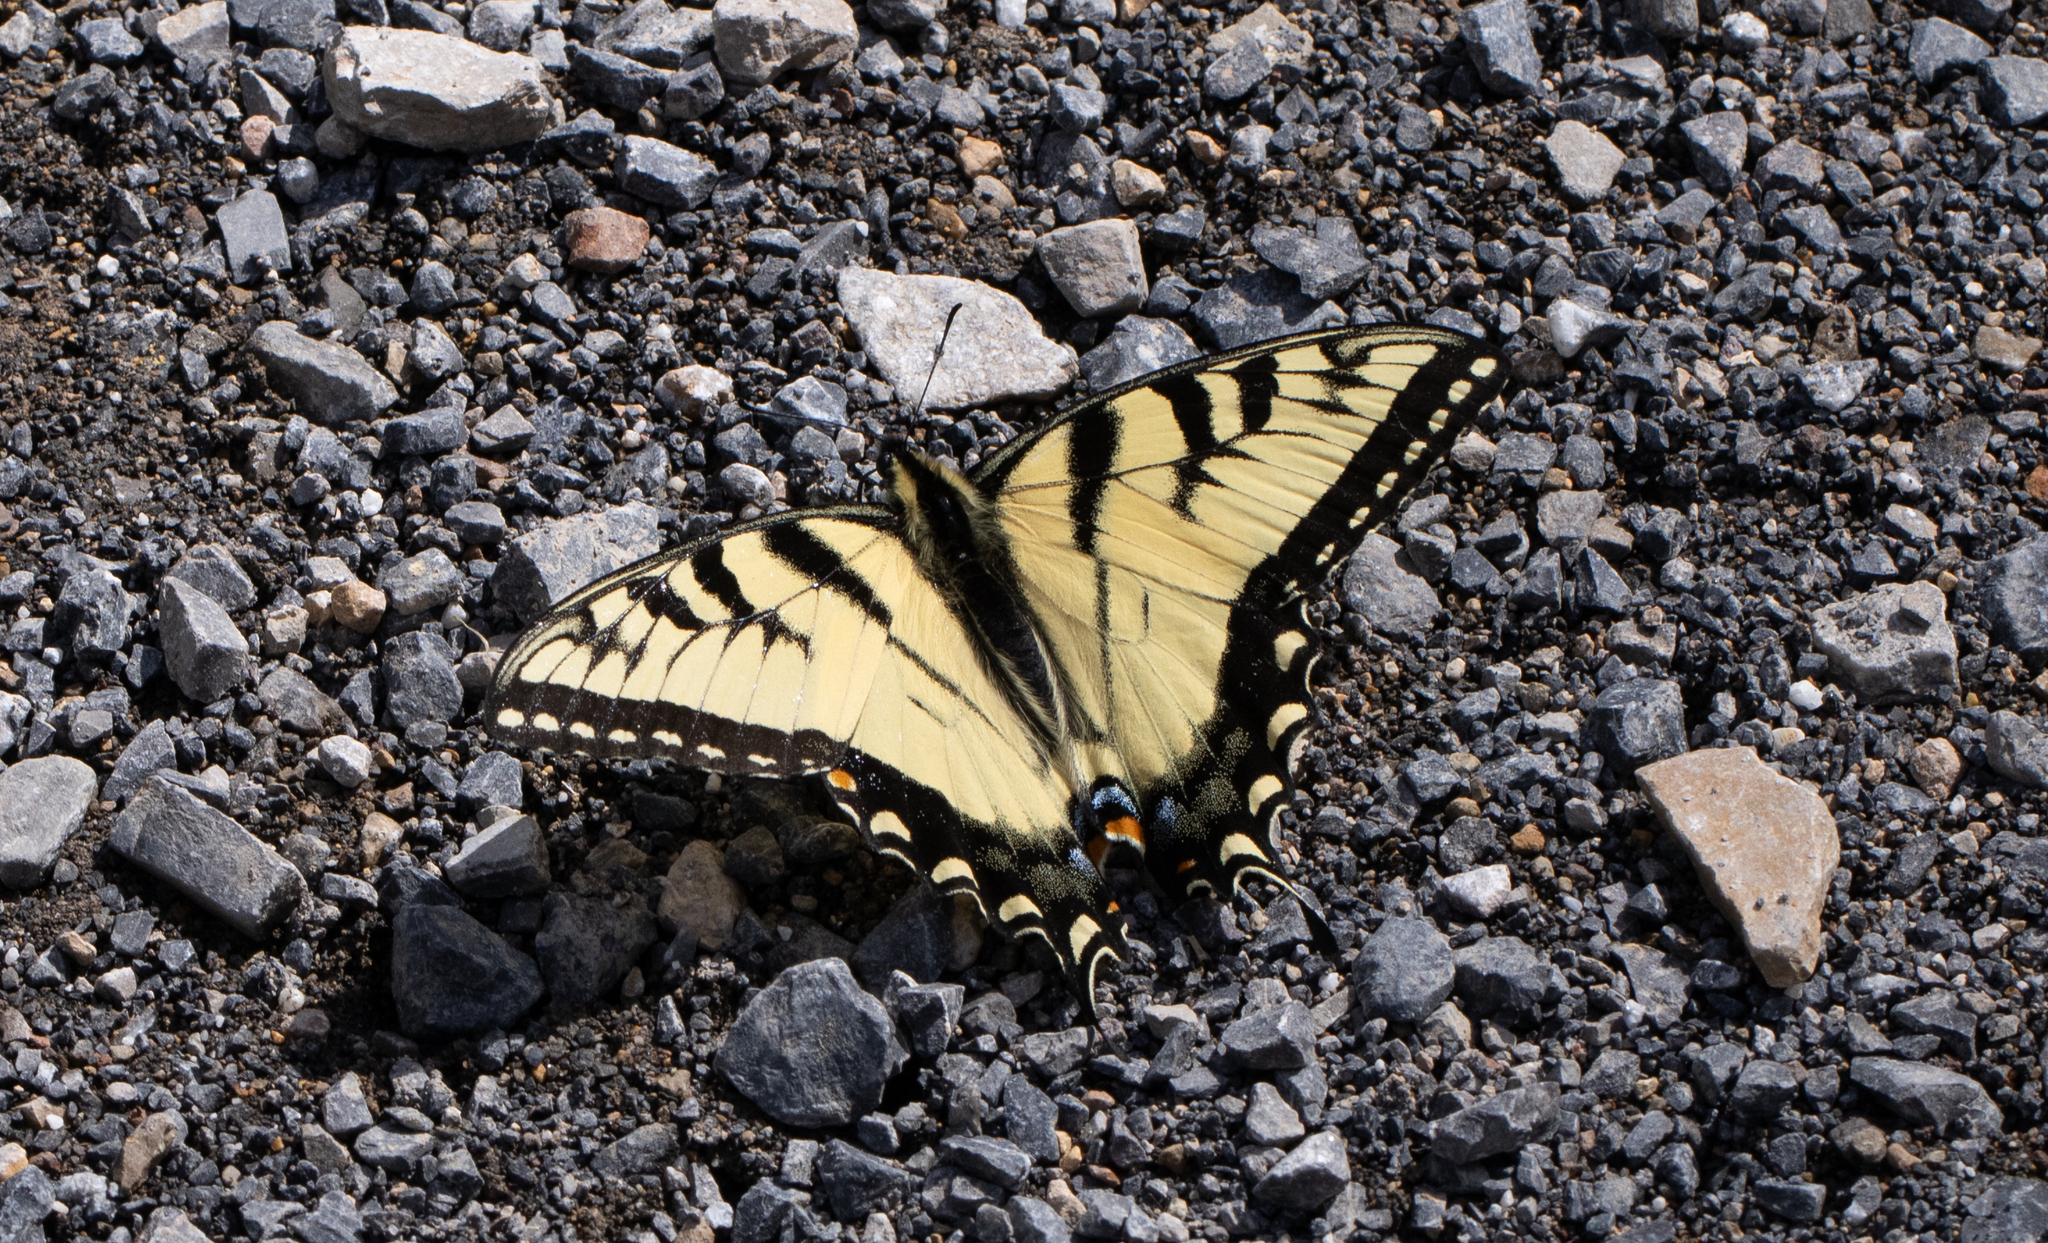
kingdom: Animalia
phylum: Arthropoda
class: Insecta
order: Lepidoptera
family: Papilionidae
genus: Papilio
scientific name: Papilio glaucus
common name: Tiger swallowtail
